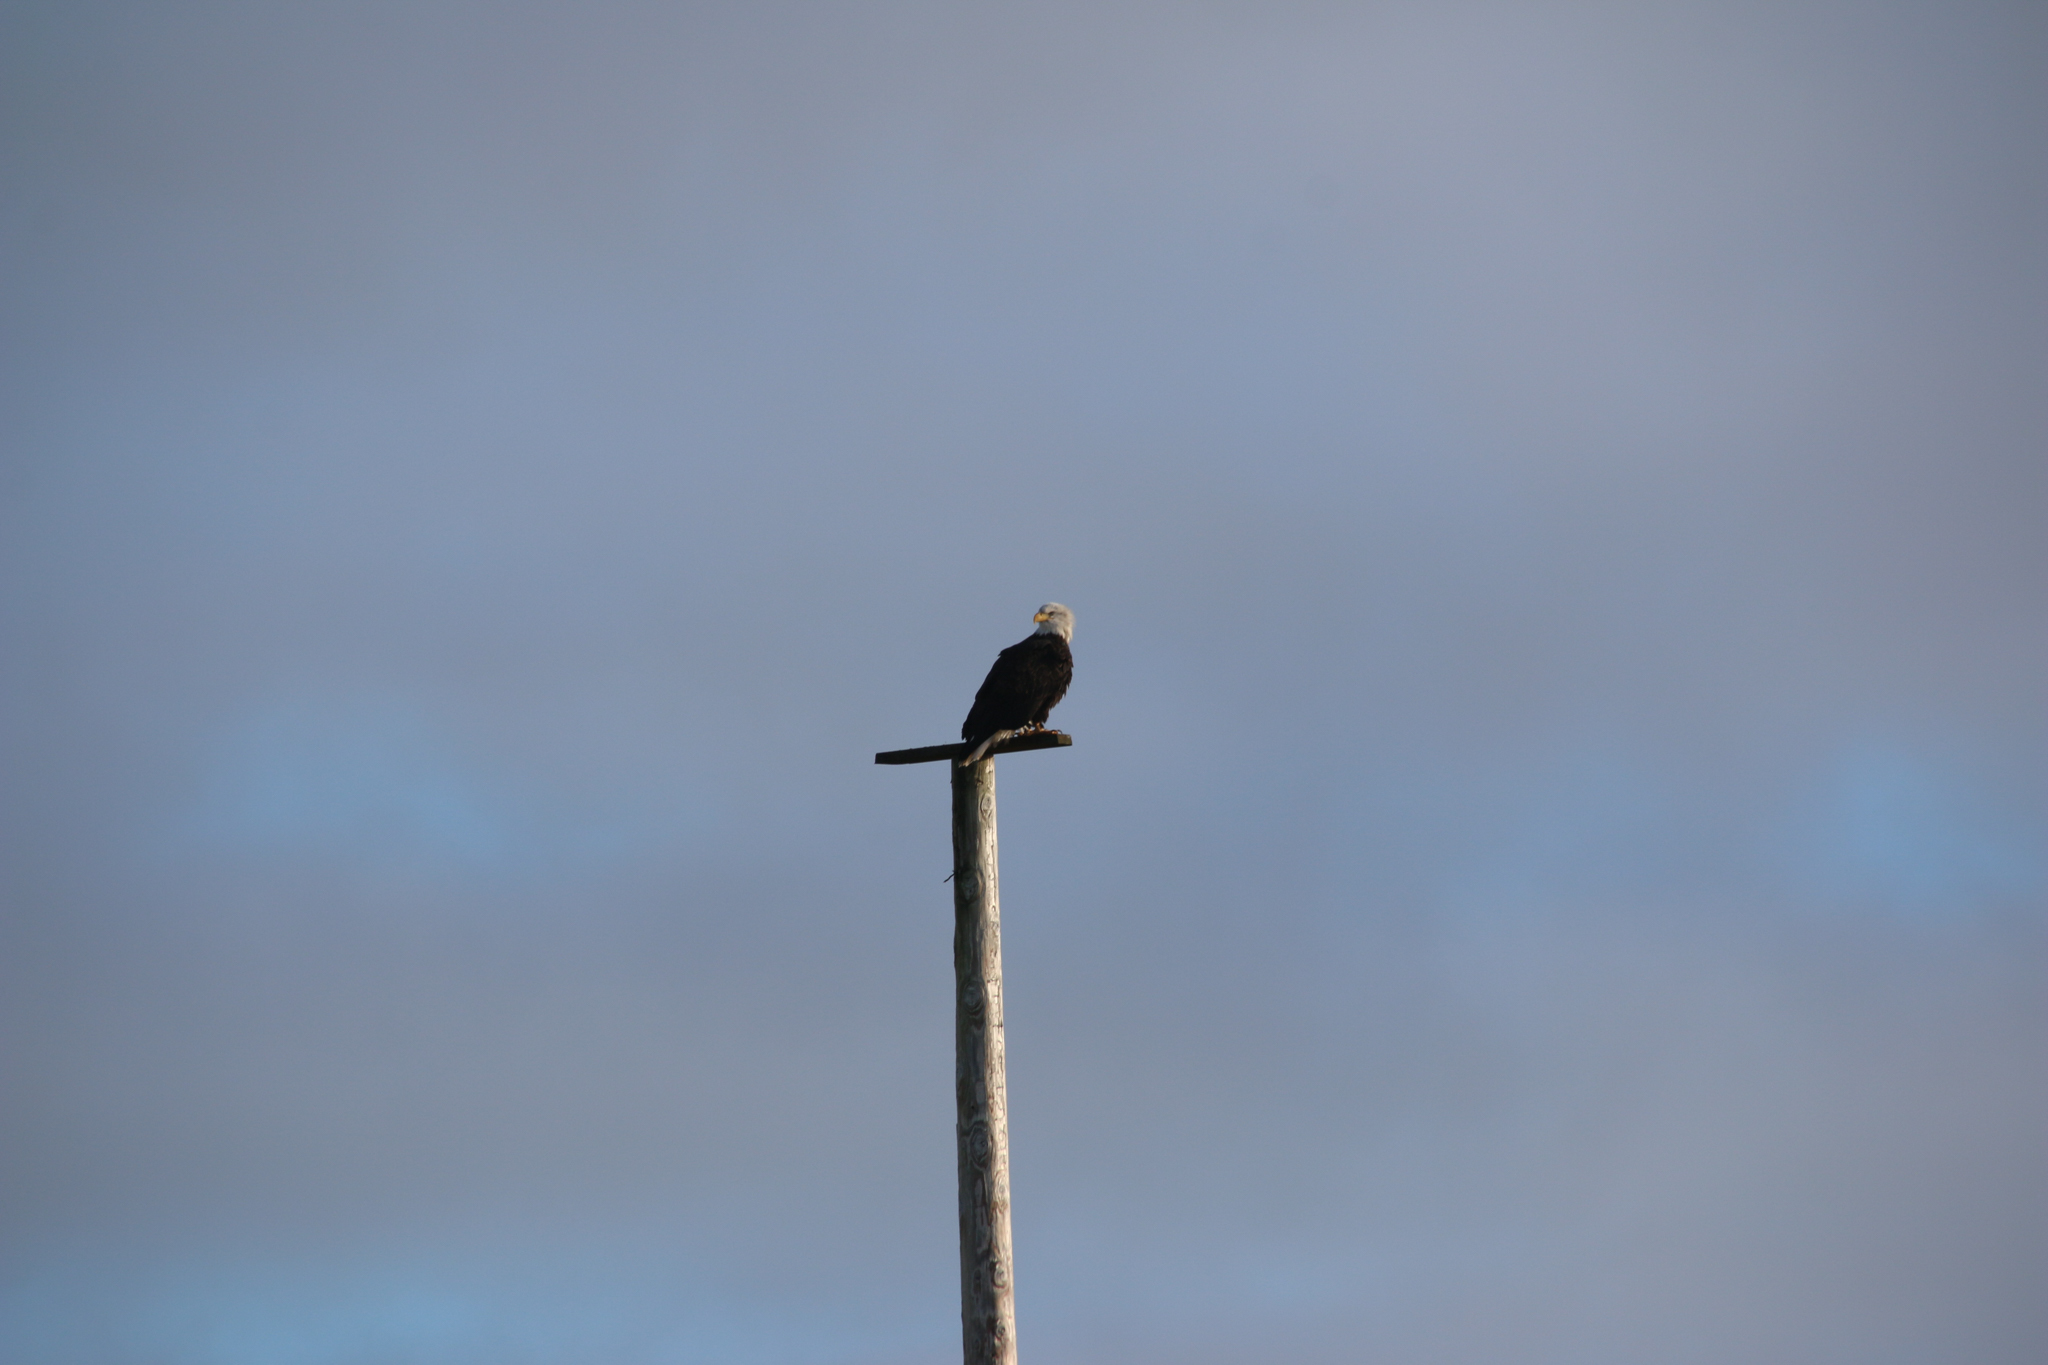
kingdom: Animalia
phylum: Chordata
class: Aves
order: Accipitriformes
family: Accipitridae
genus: Haliaeetus
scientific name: Haliaeetus leucocephalus
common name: Bald eagle
